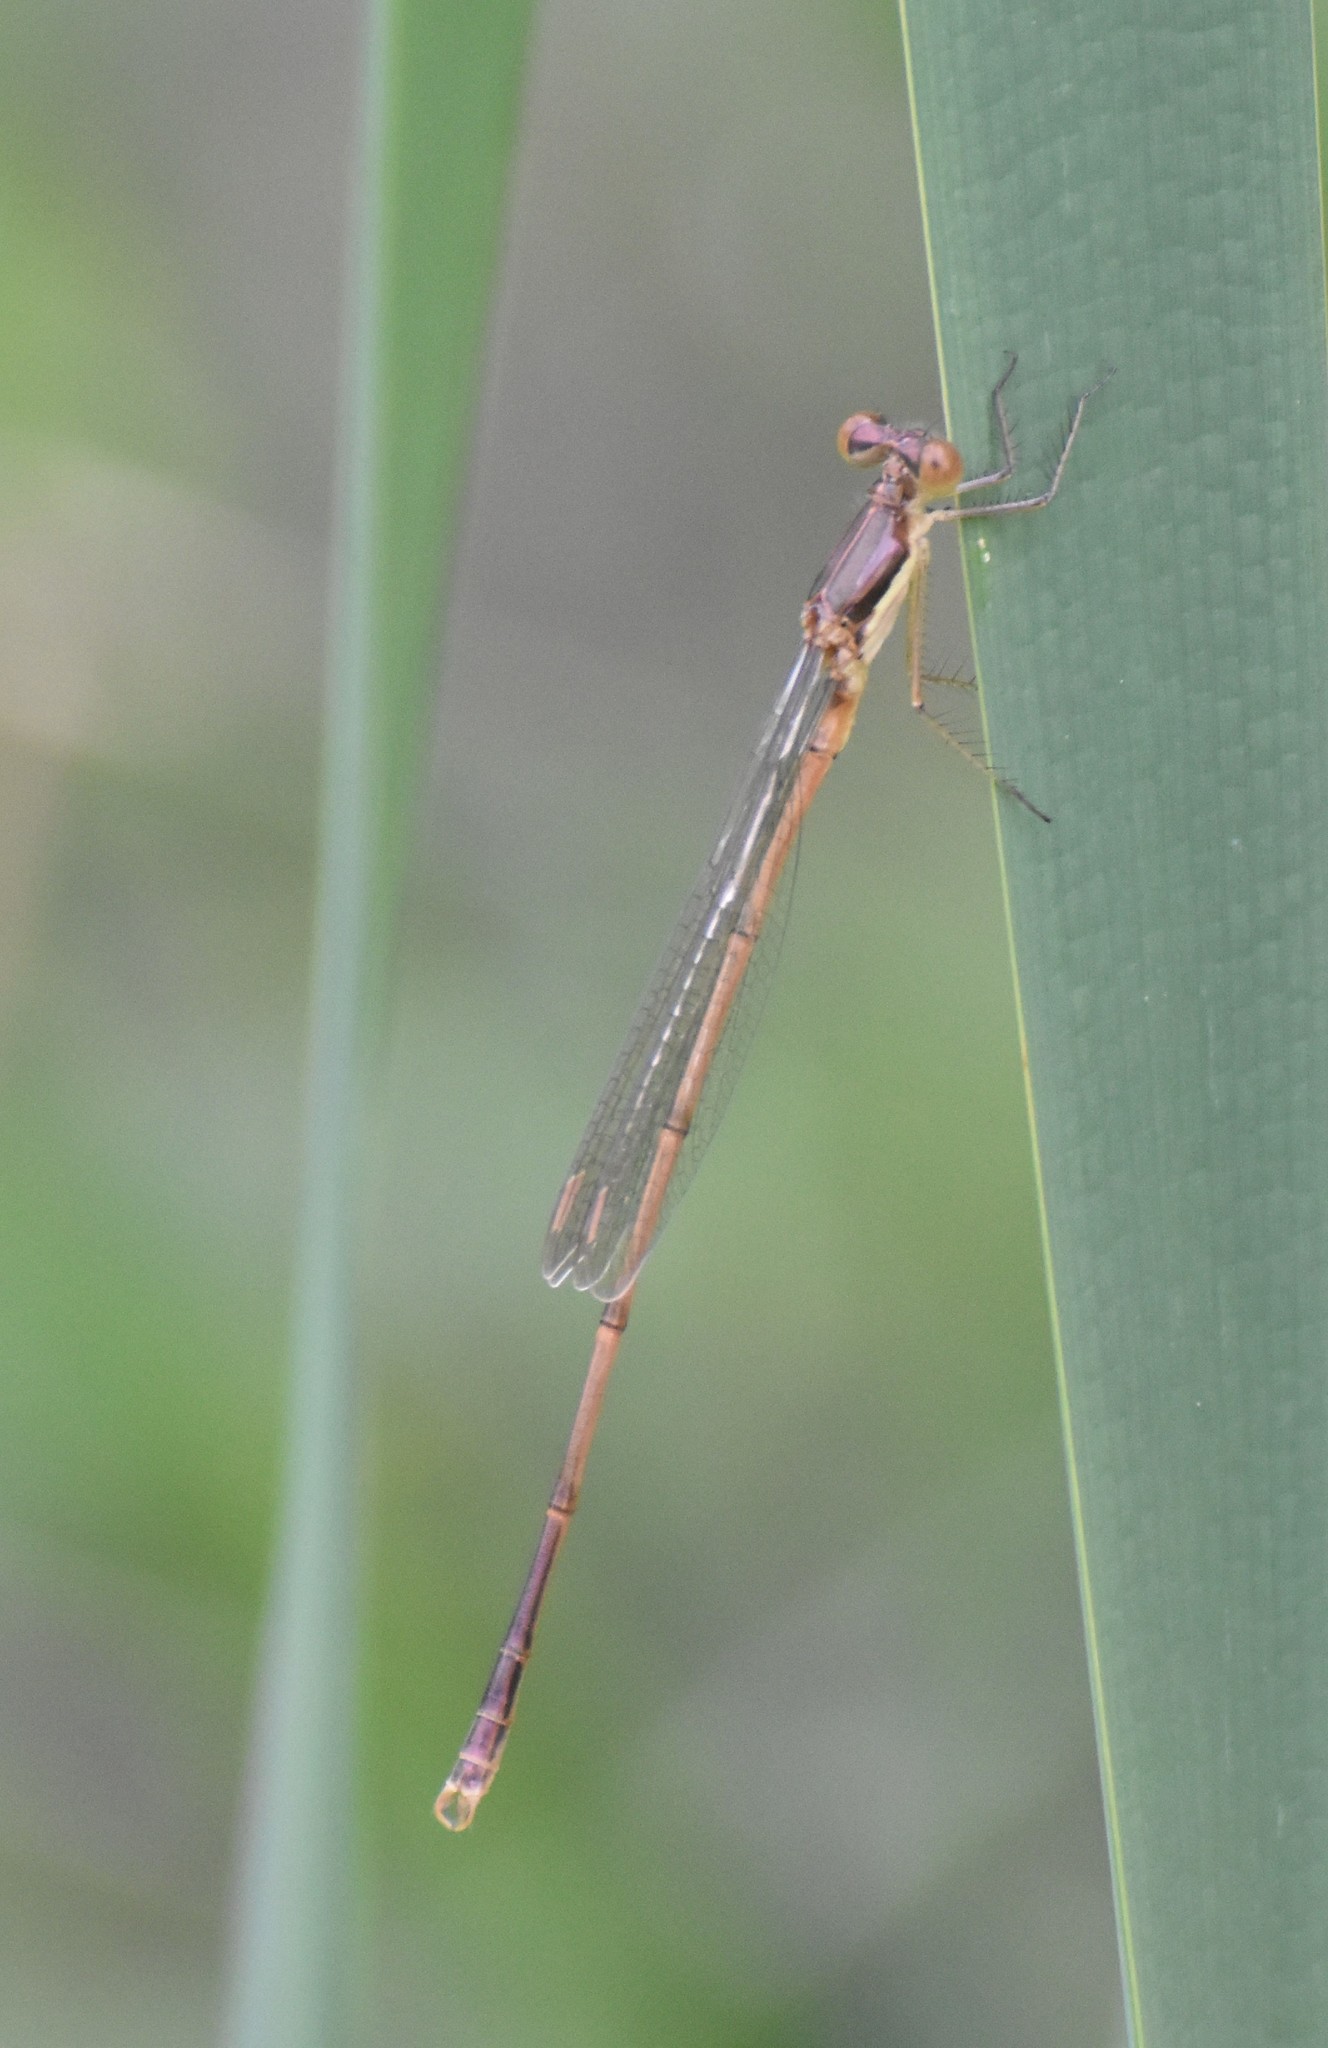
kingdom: Animalia
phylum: Arthropoda
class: Insecta
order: Odonata
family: Lestidae
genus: Lestes
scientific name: Lestes rectangularis
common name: Slender spreadwing
